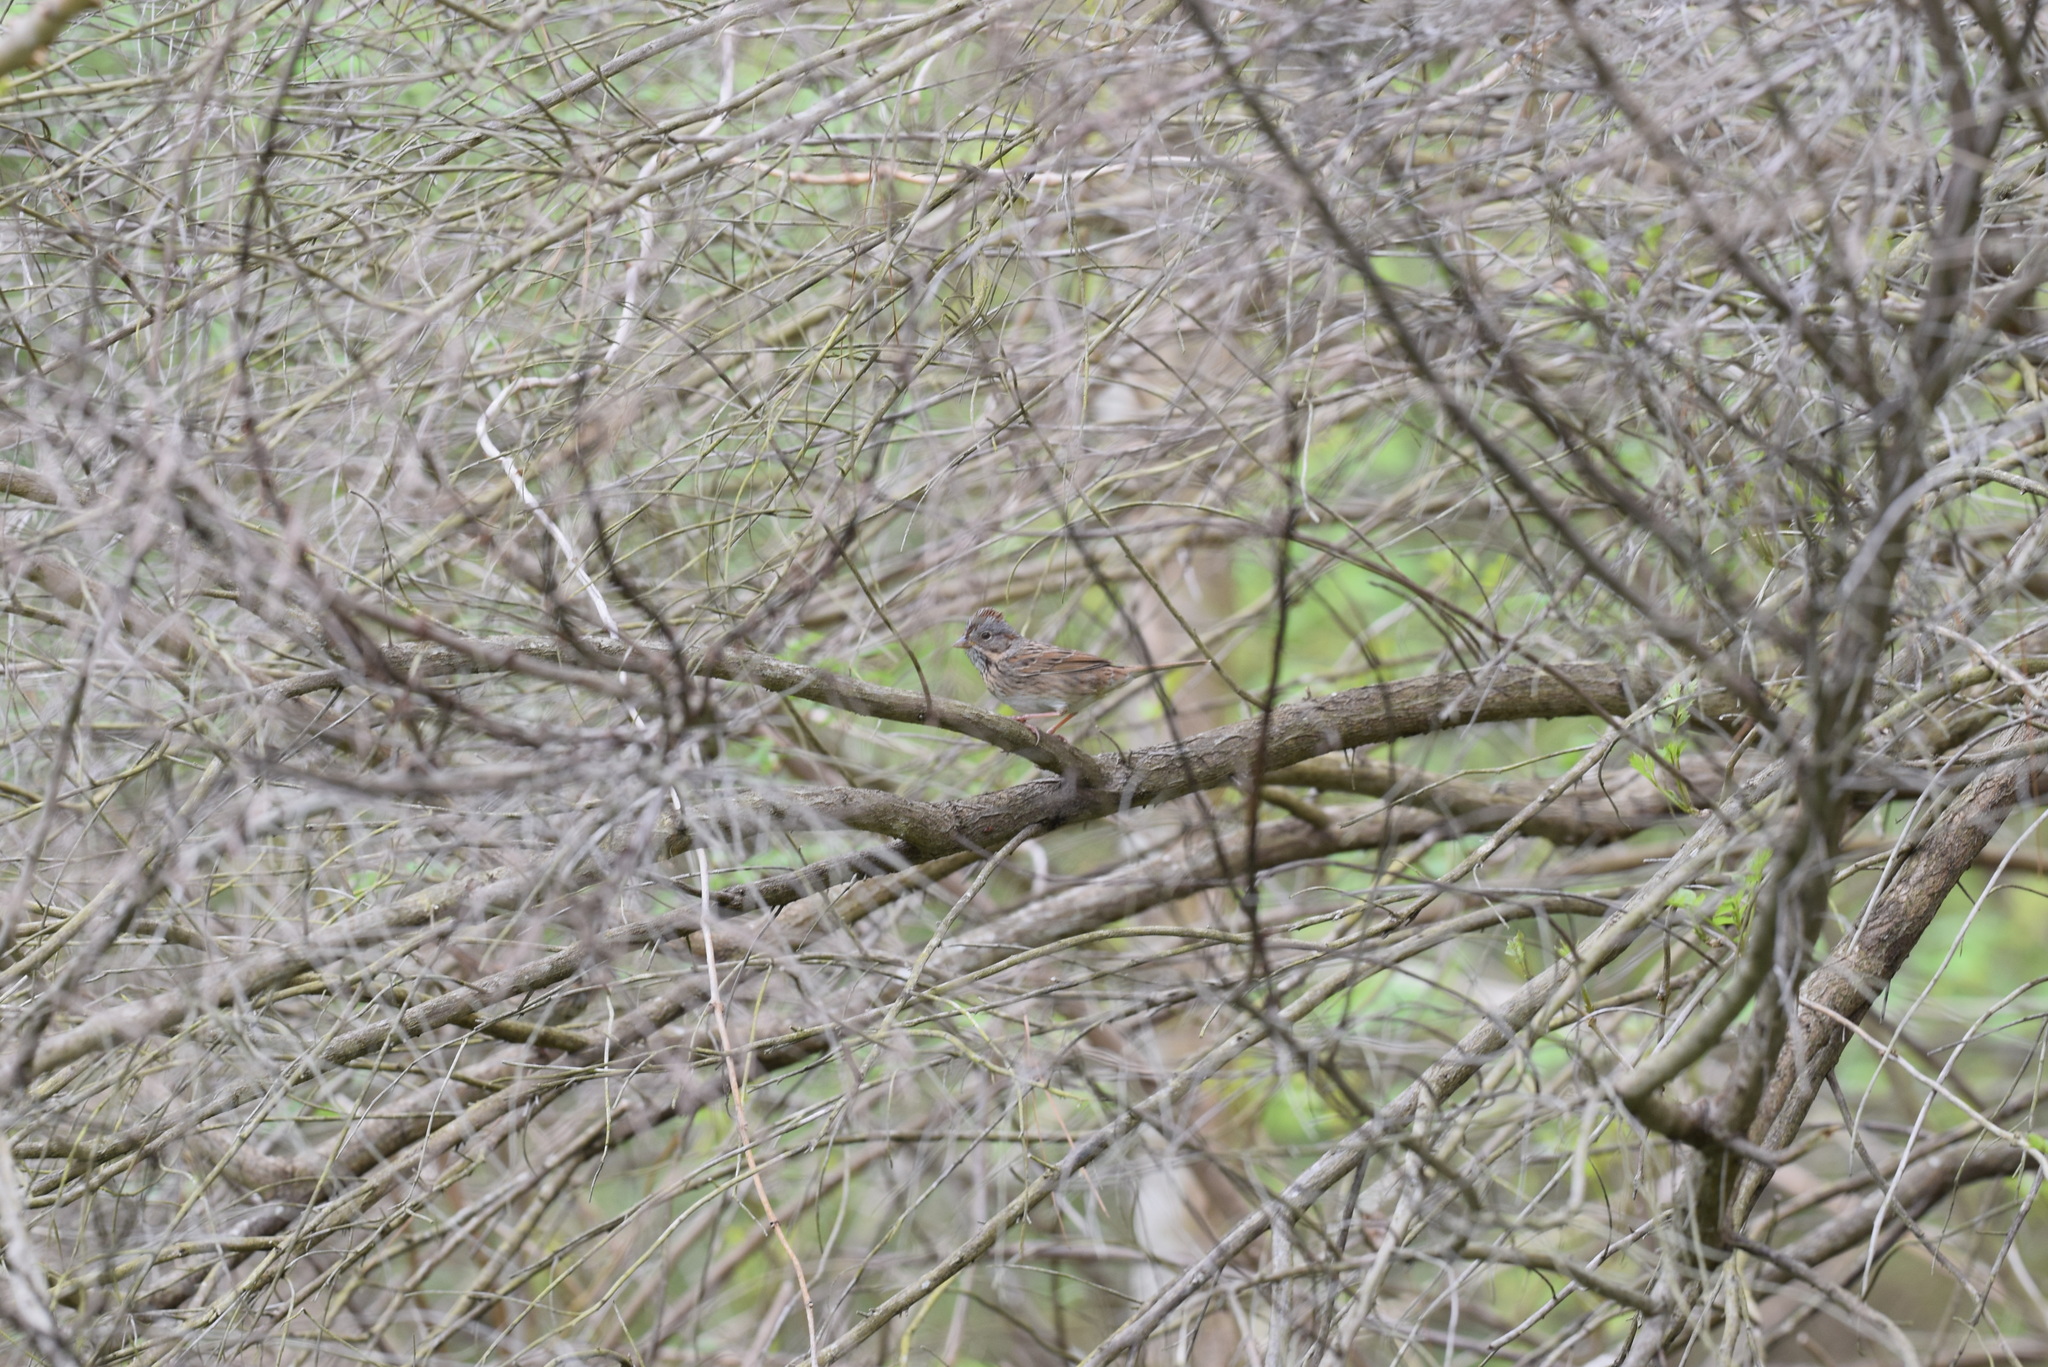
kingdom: Animalia
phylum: Chordata
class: Aves
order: Passeriformes
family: Passerellidae
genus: Melospiza
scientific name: Melospiza lincolnii
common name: Lincoln's sparrow
